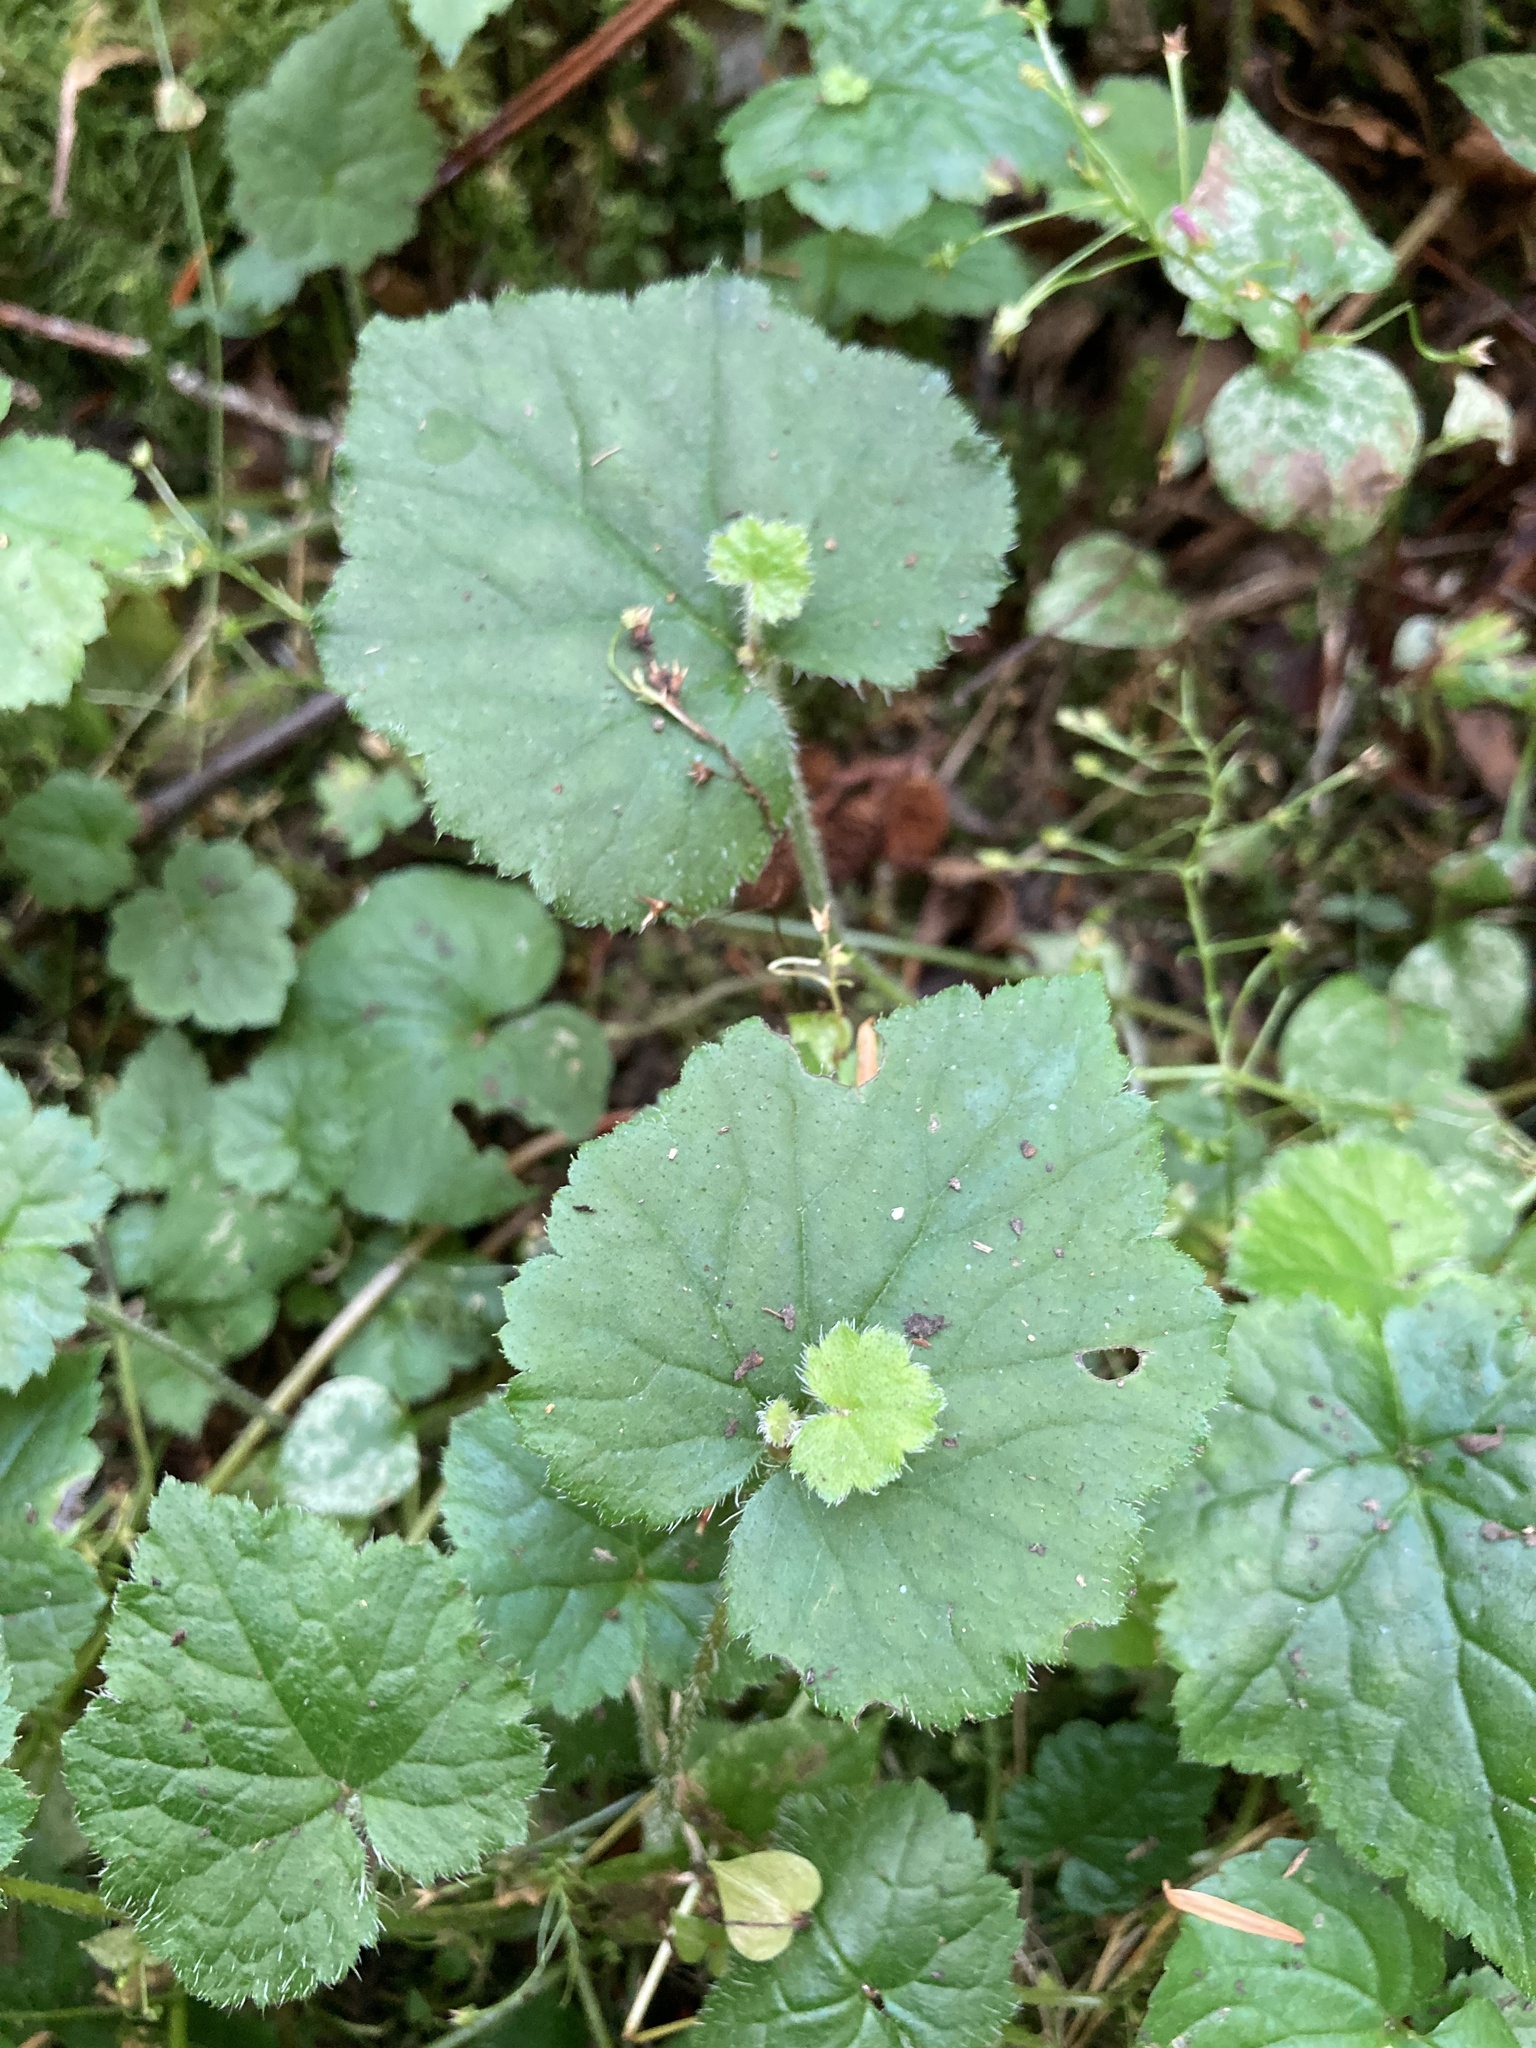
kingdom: Plantae
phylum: Tracheophyta
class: Magnoliopsida
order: Saxifragales
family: Saxifragaceae
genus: Tolmiea
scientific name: Tolmiea menziesii
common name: Pick-a-back-plant
